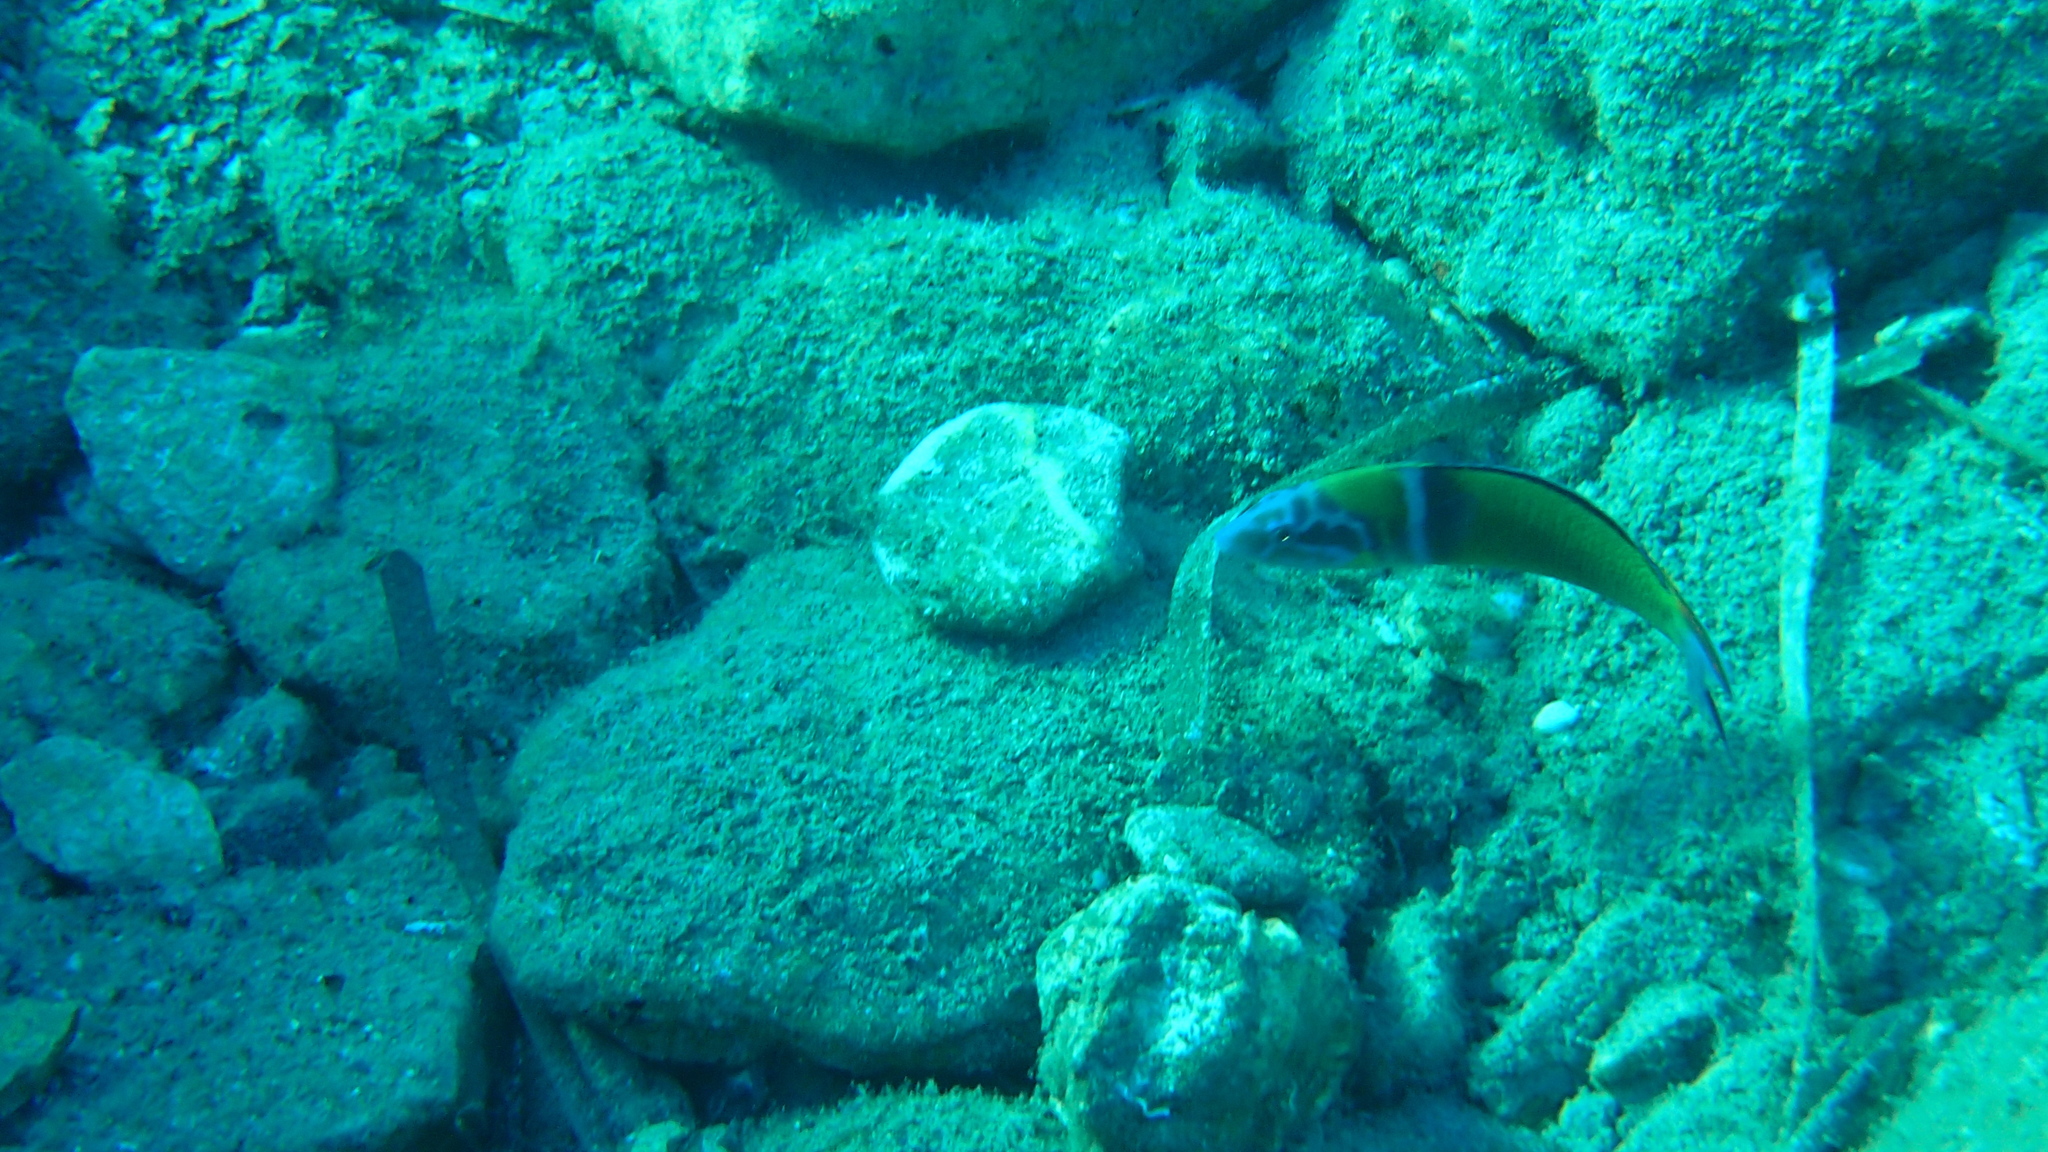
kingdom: Animalia
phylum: Chordata
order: Perciformes
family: Labridae
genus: Thalassoma
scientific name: Thalassoma pavo
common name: Ornate wrasse
